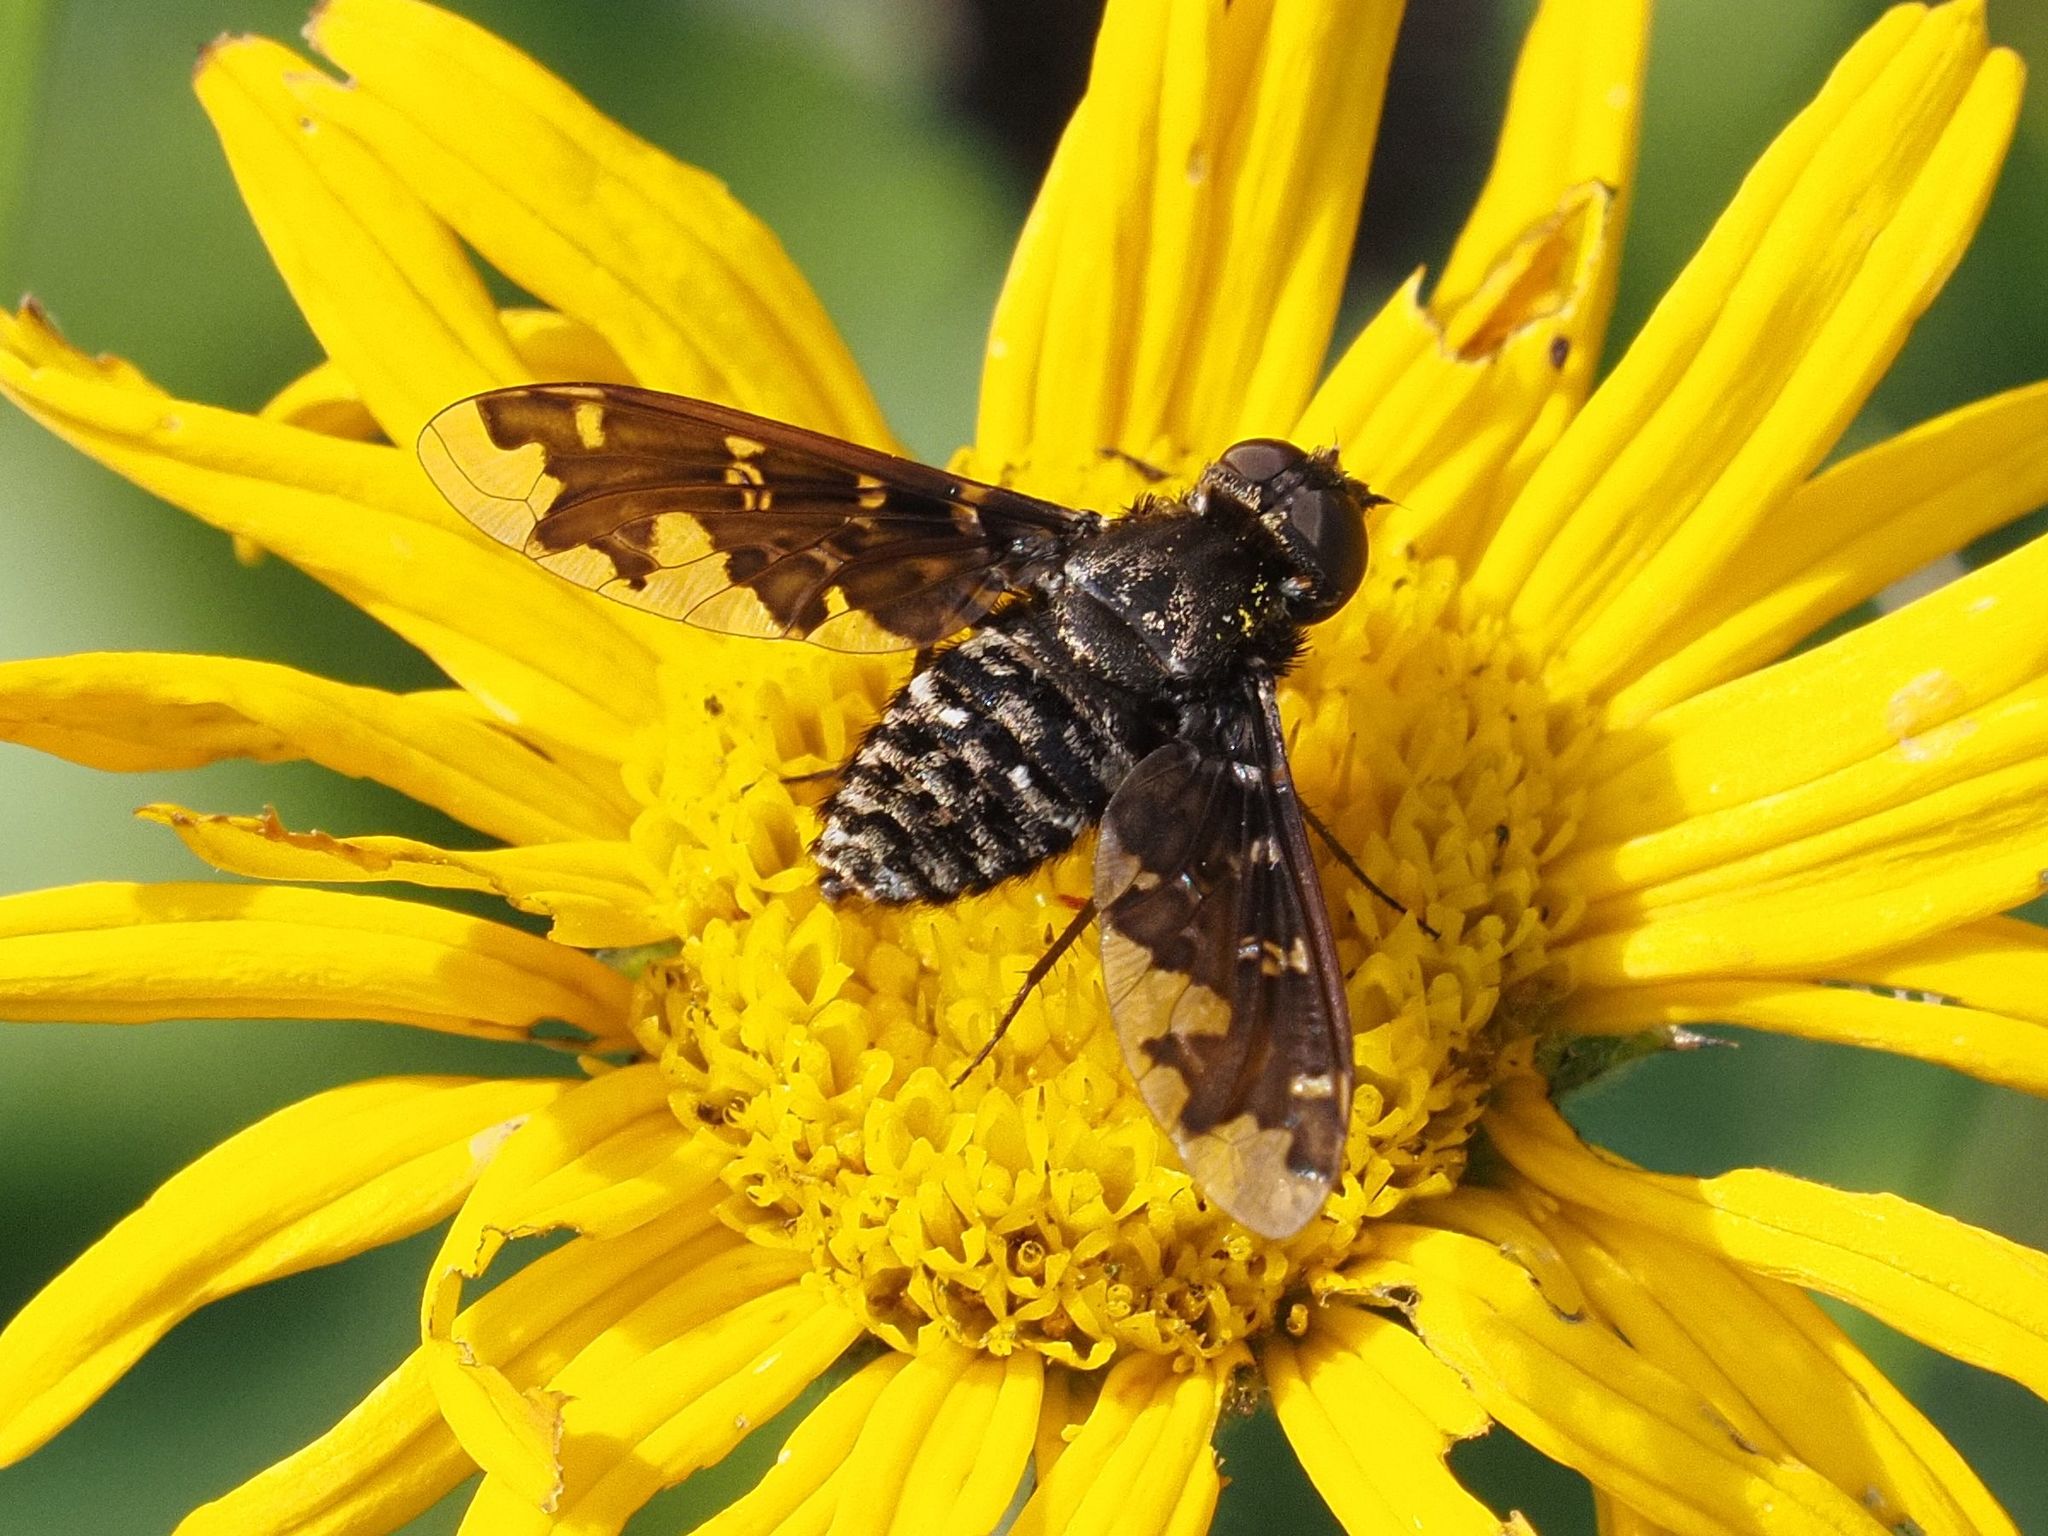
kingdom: Animalia
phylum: Arthropoda
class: Insecta
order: Diptera
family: Bombyliidae
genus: Exoprosopa
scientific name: Exoprosopa jacchus
